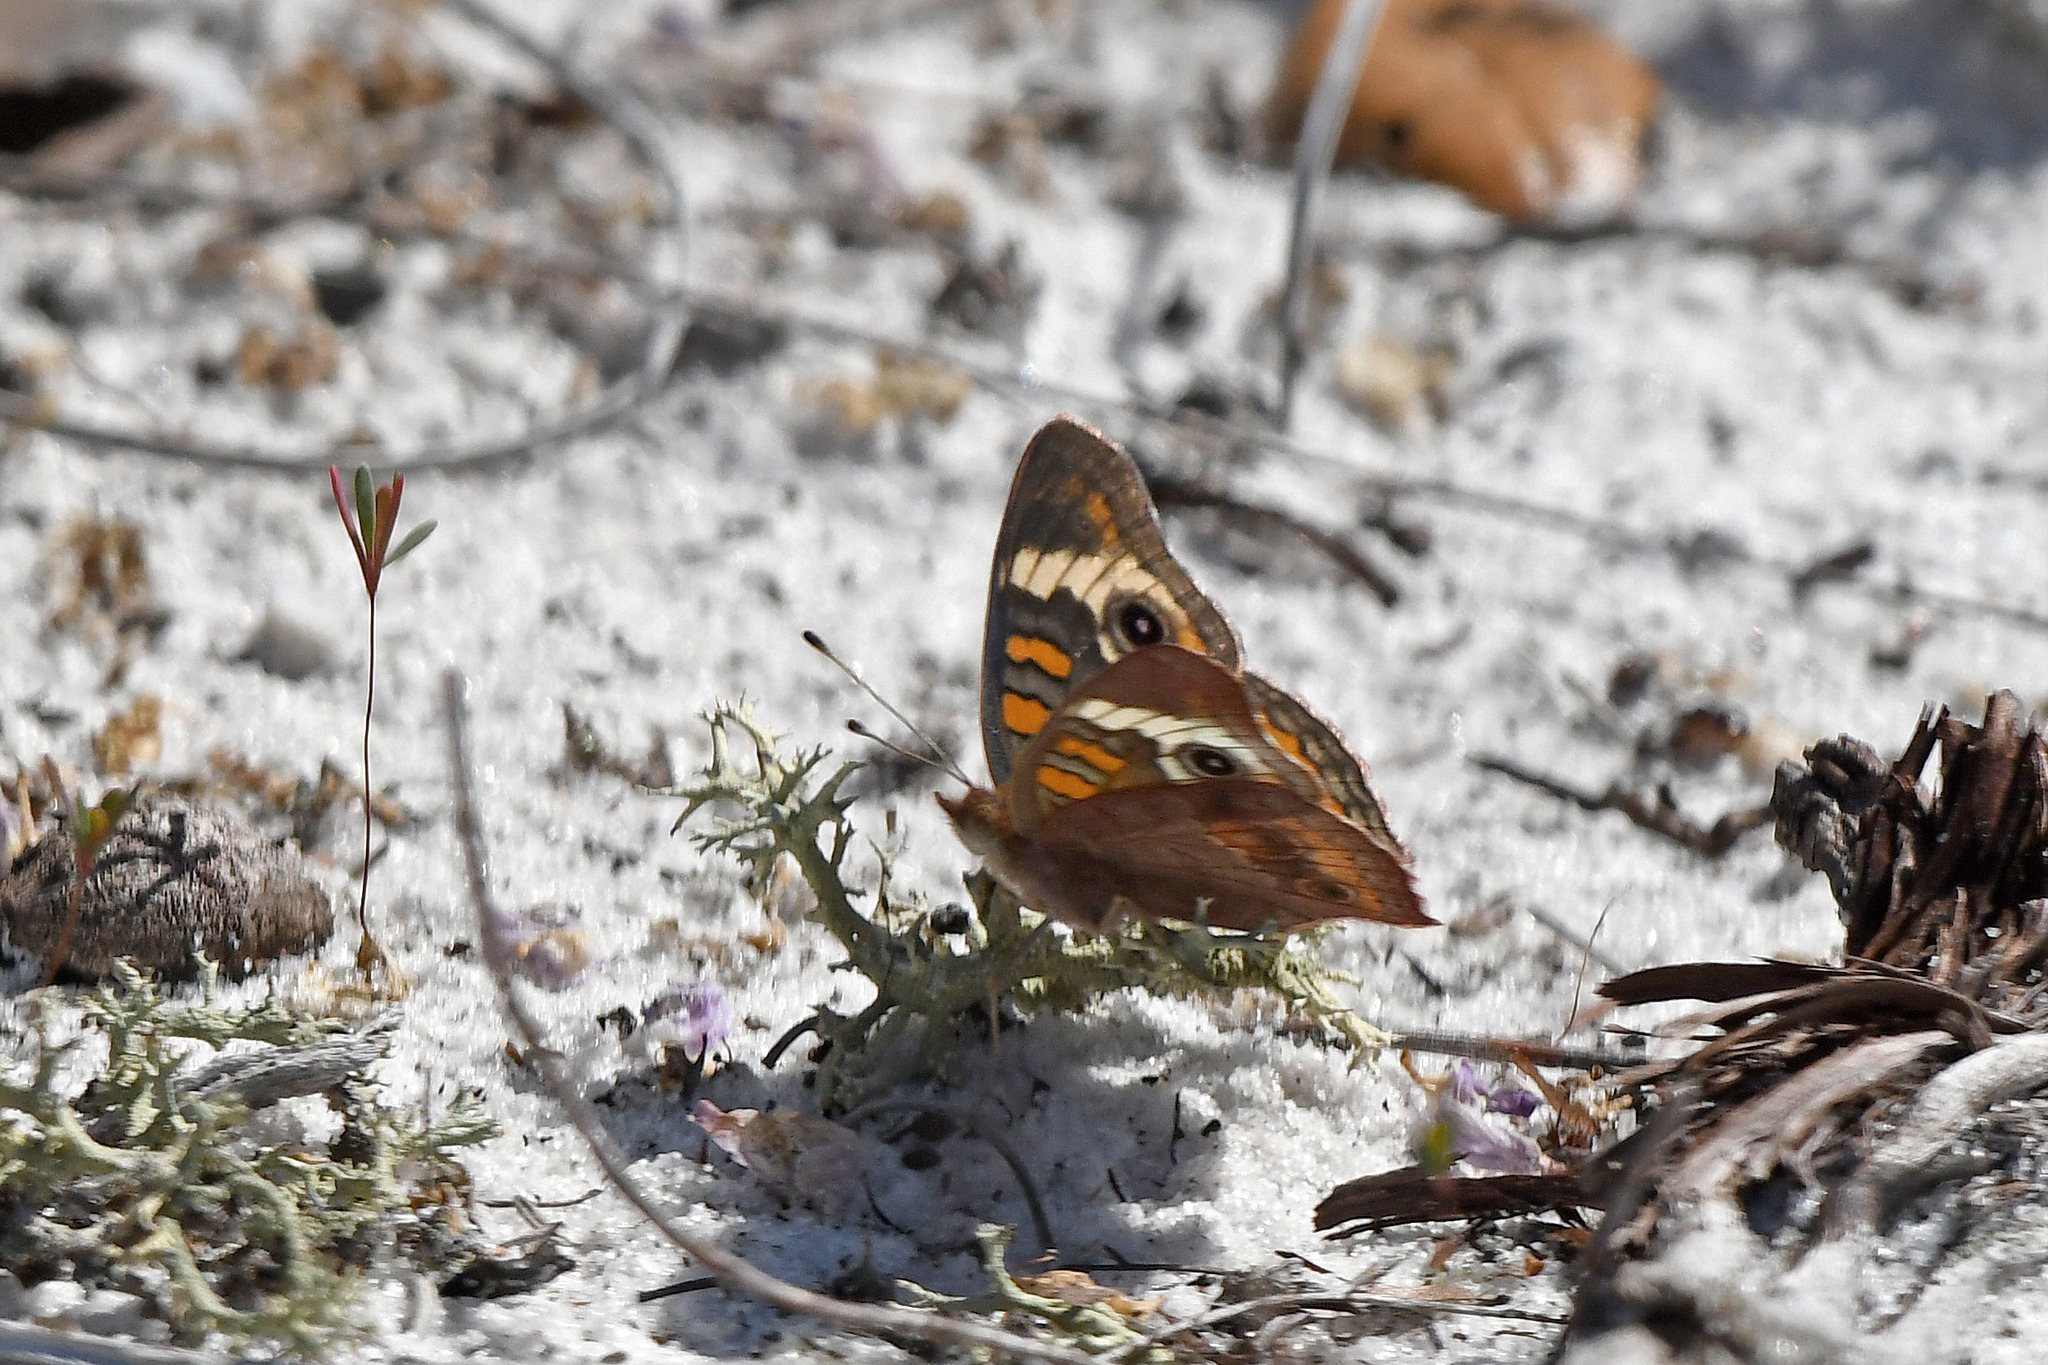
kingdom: Animalia
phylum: Arthropoda
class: Insecta
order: Lepidoptera
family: Nymphalidae
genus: Junonia
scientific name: Junonia coenia
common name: Common buckeye
